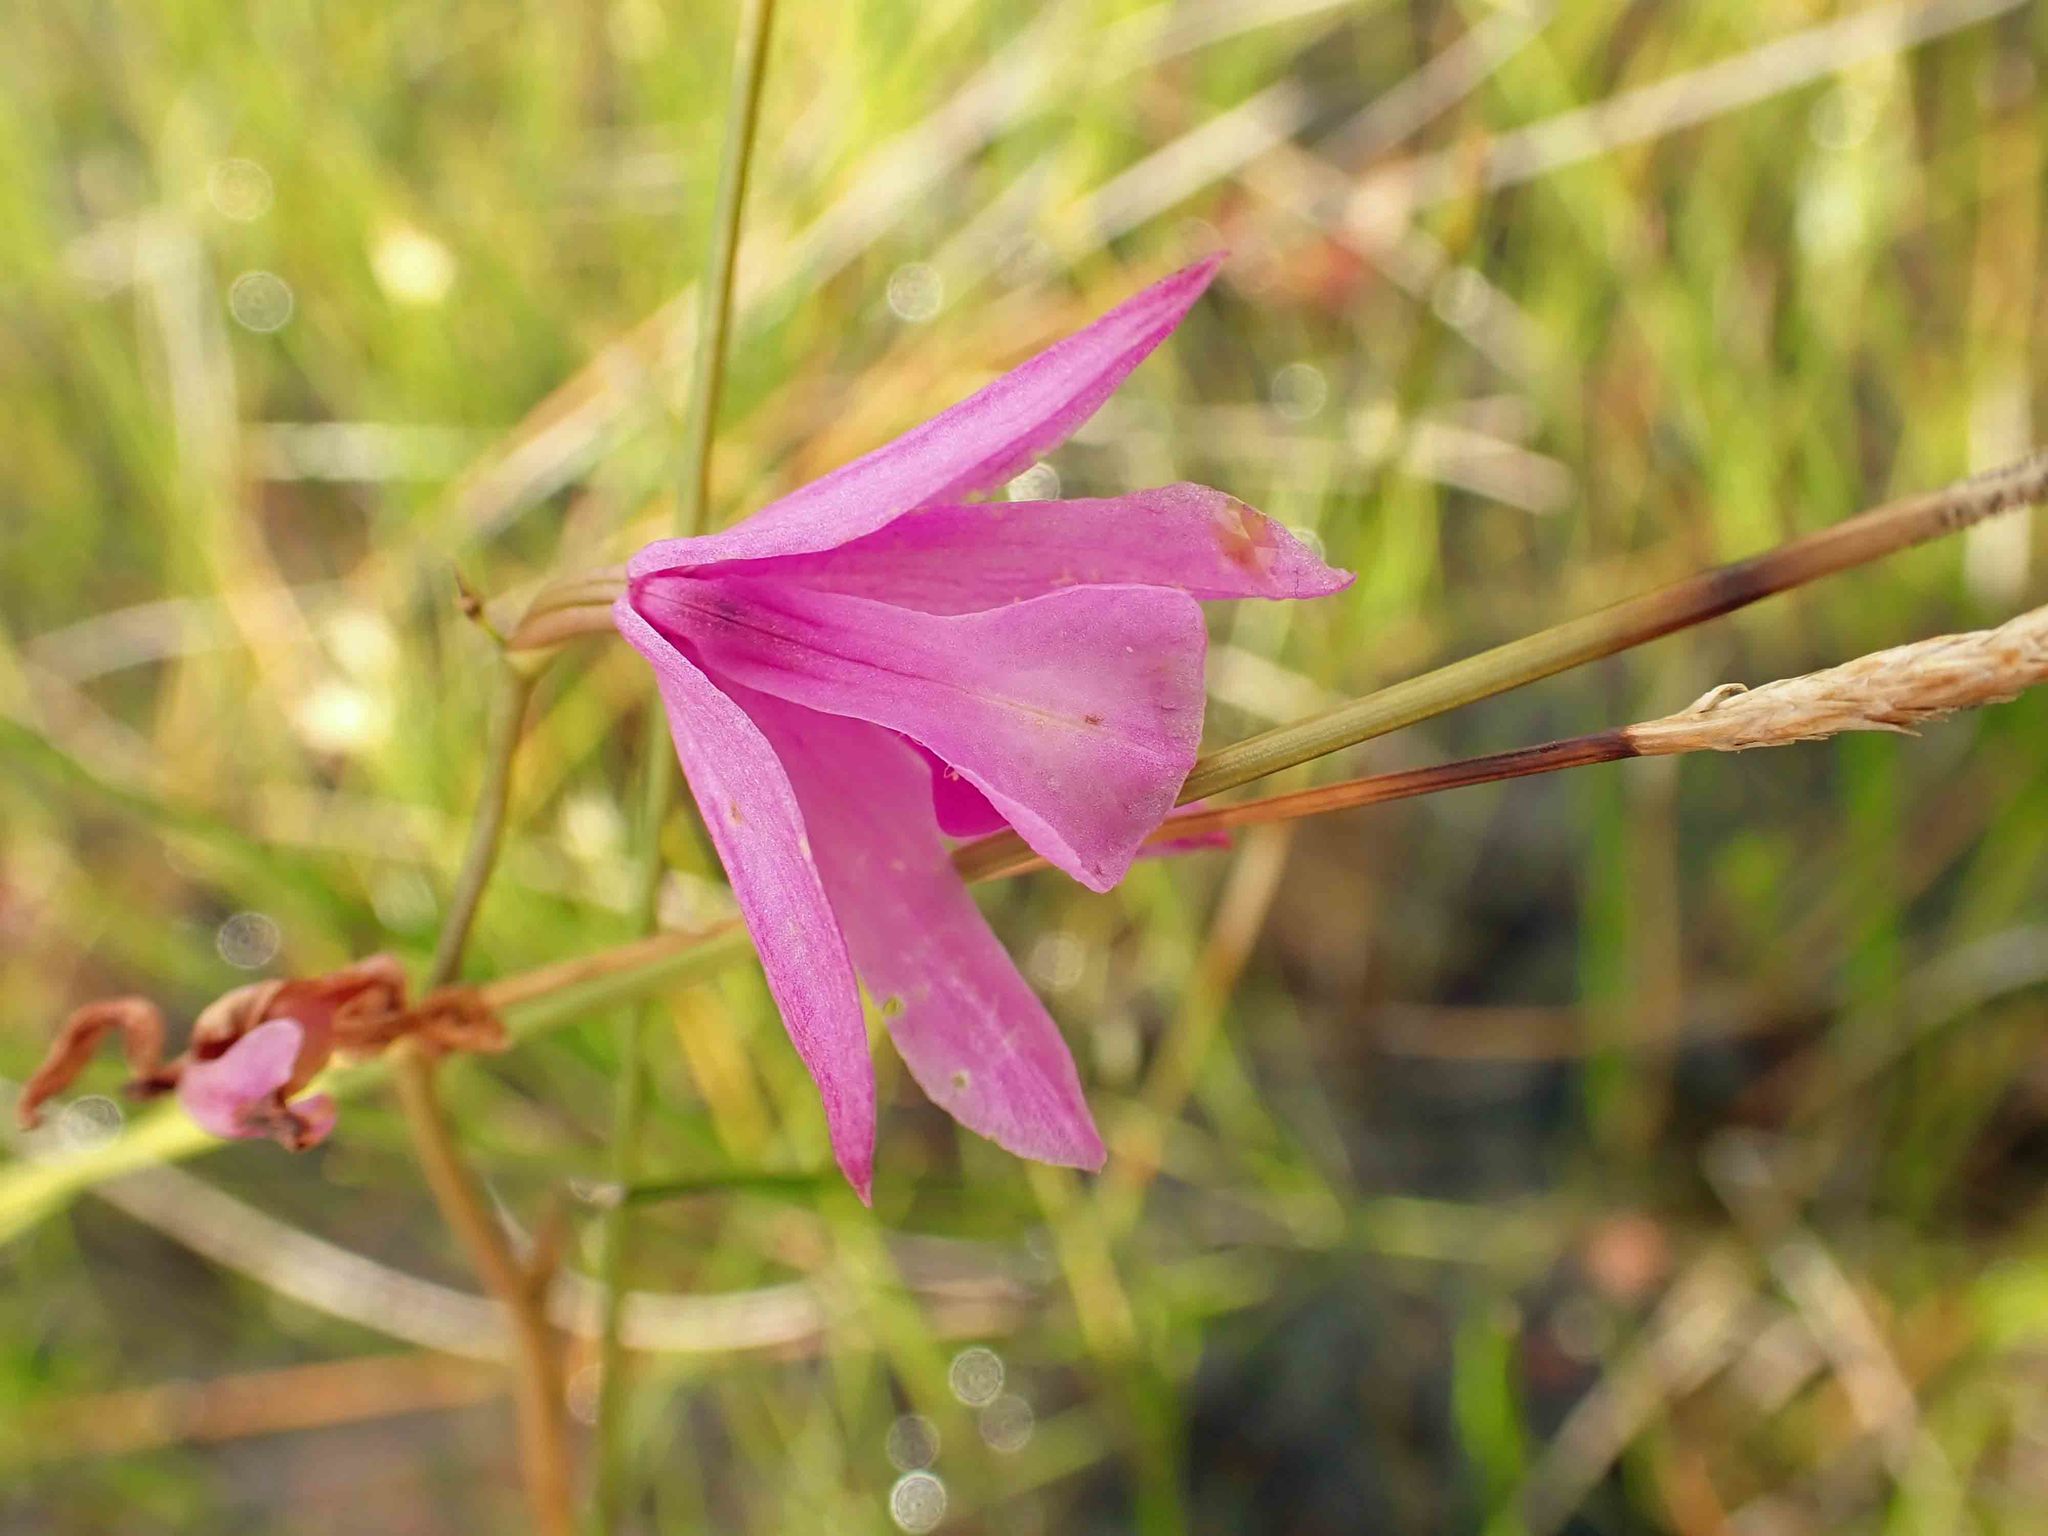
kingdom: Plantae
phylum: Tracheophyta
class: Liliopsida
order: Asparagales
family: Orchidaceae
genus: Calopogon
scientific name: Calopogon tuberosus
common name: Grass-pink
